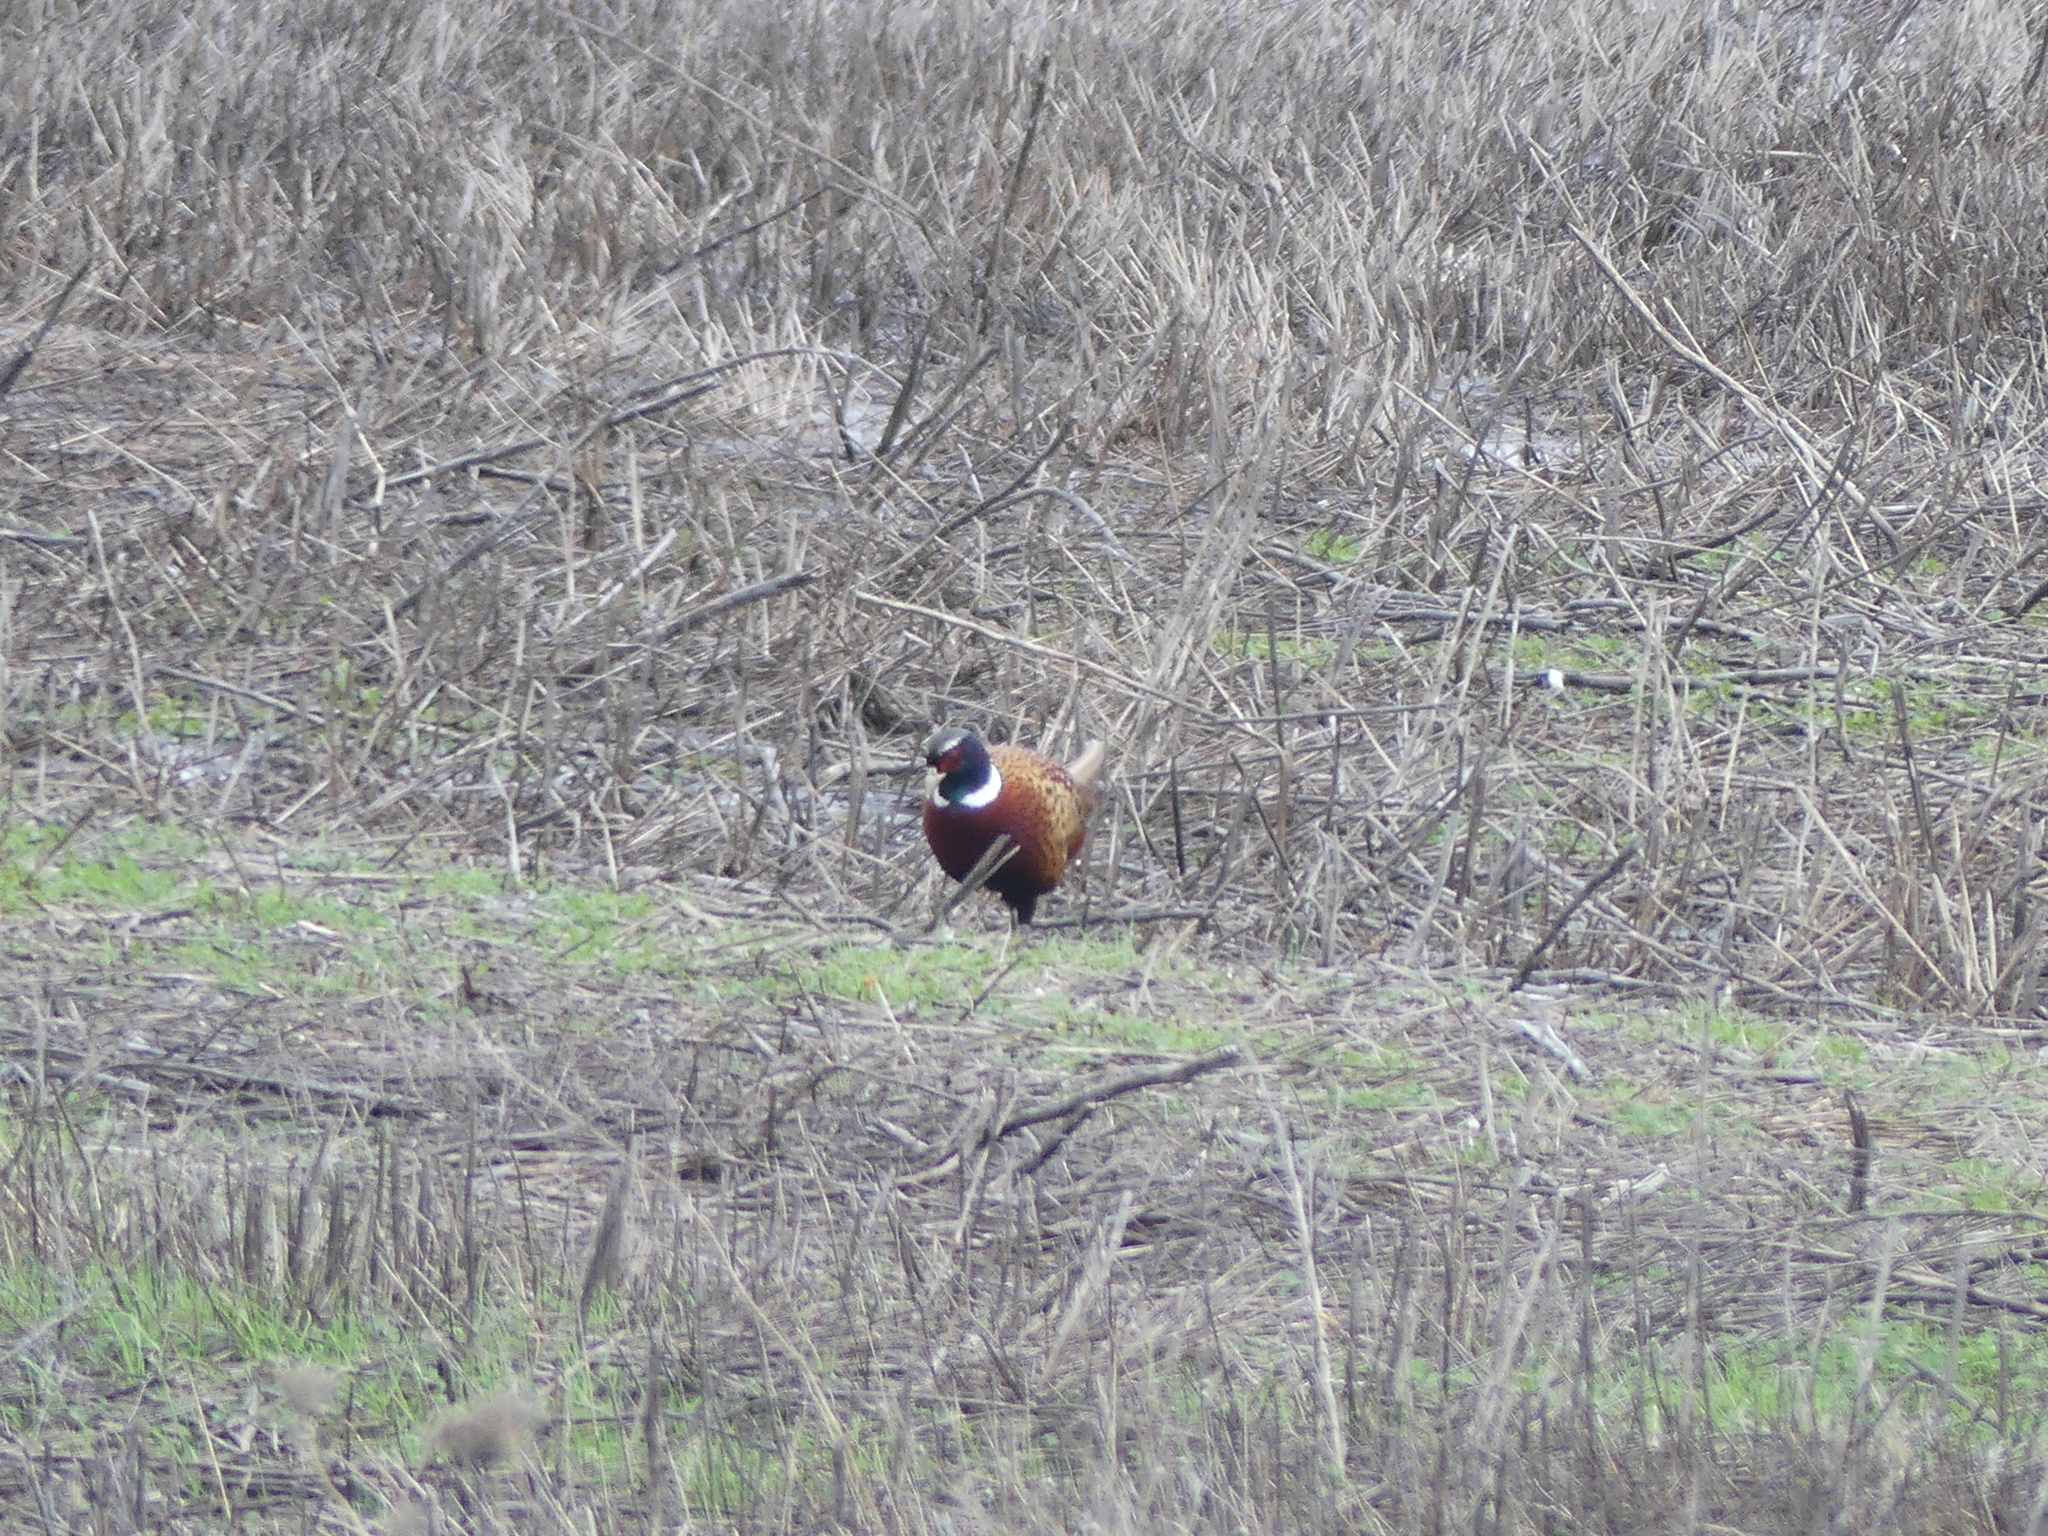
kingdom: Animalia
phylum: Chordata
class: Aves
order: Galliformes
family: Phasianidae
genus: Phasianus
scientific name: Phasianus colchicus
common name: Common pheasant
